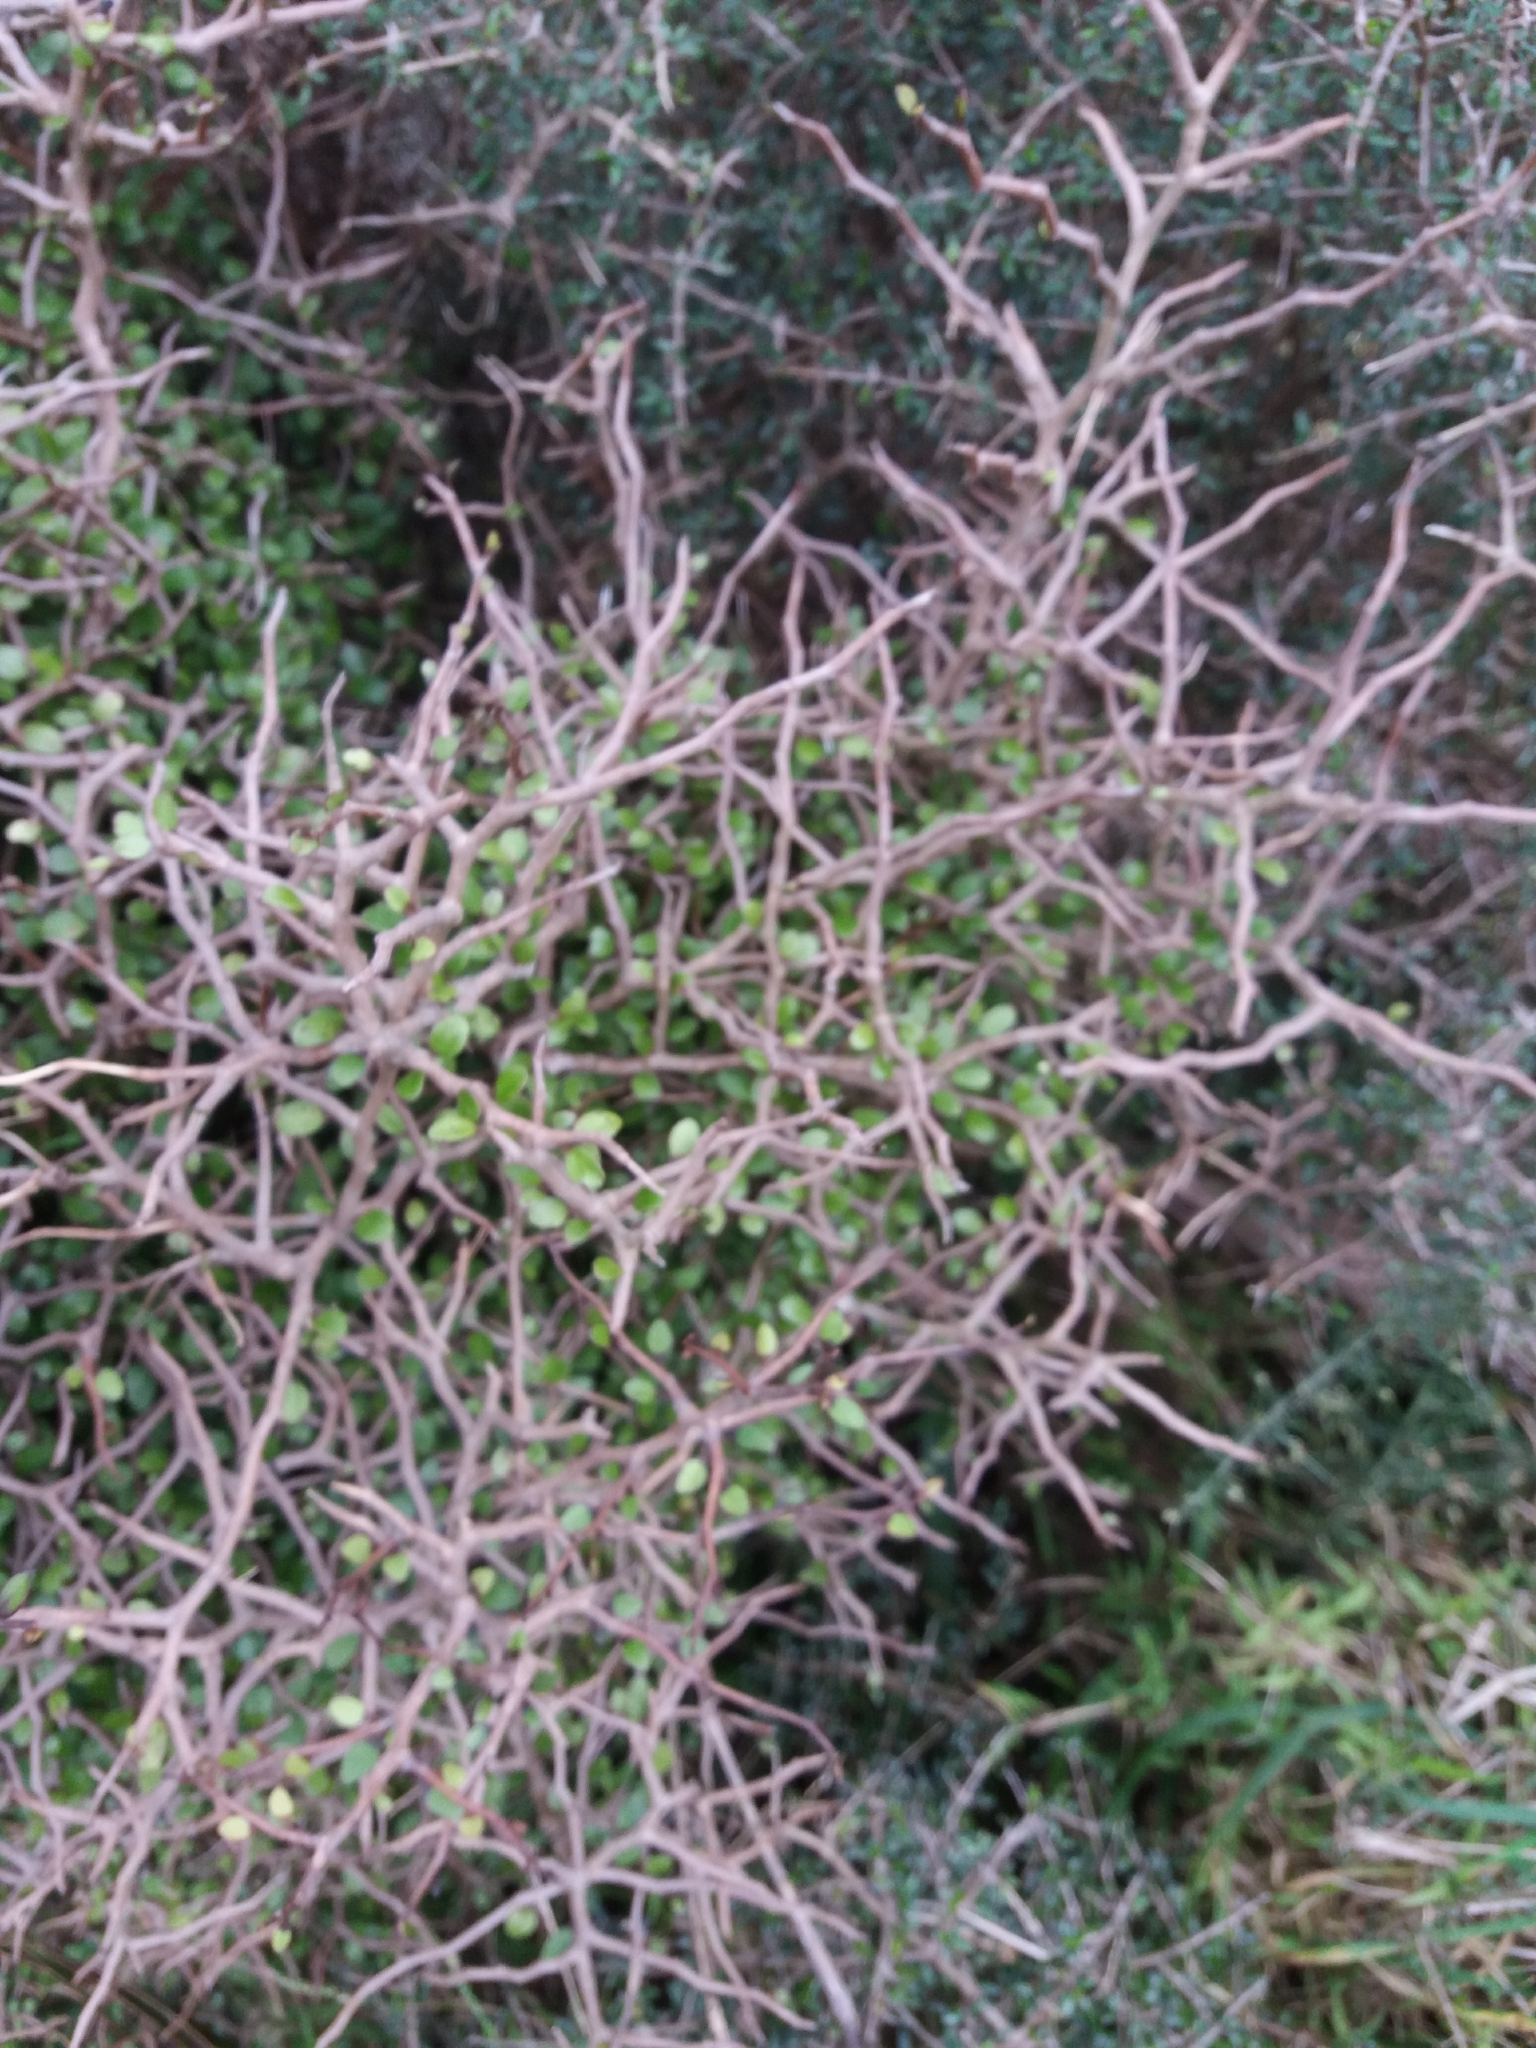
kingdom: Plantae
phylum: Tracheophyta
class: Magnoliopsida
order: Apiales
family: Araliaceae
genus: Raukaua
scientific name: Raukaua anomalus
